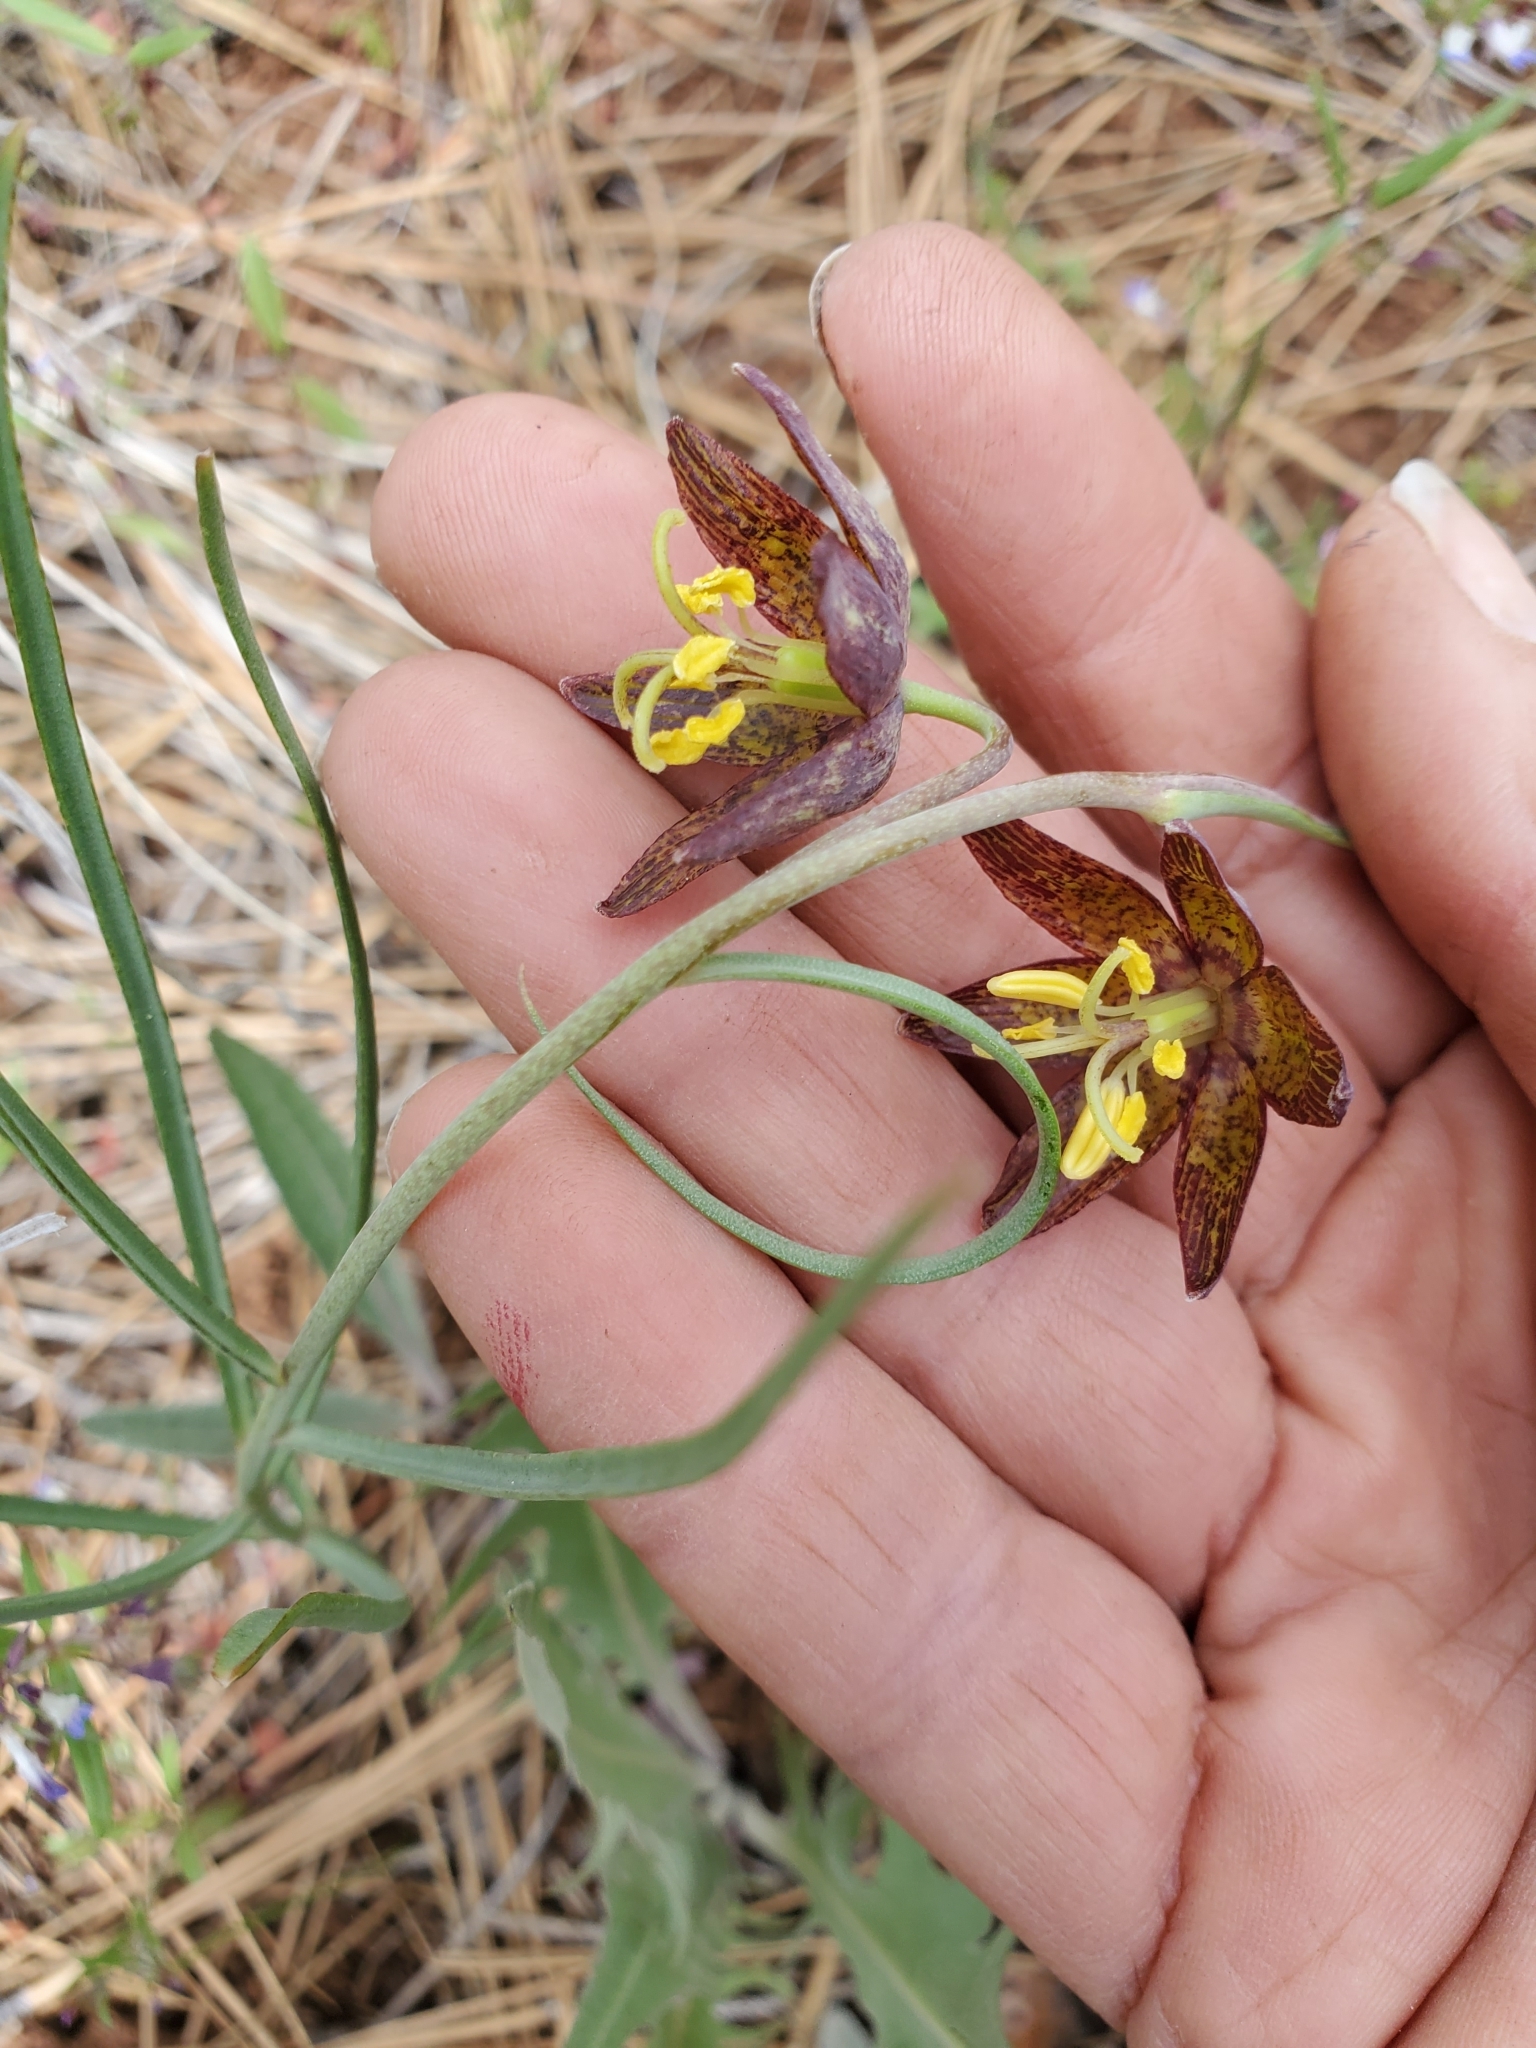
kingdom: Plantae
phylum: Tracheophyta
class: Liliopsida
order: Liliales
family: Liliaceae
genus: Fritillaria
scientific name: Fritillaria atropurpurea
